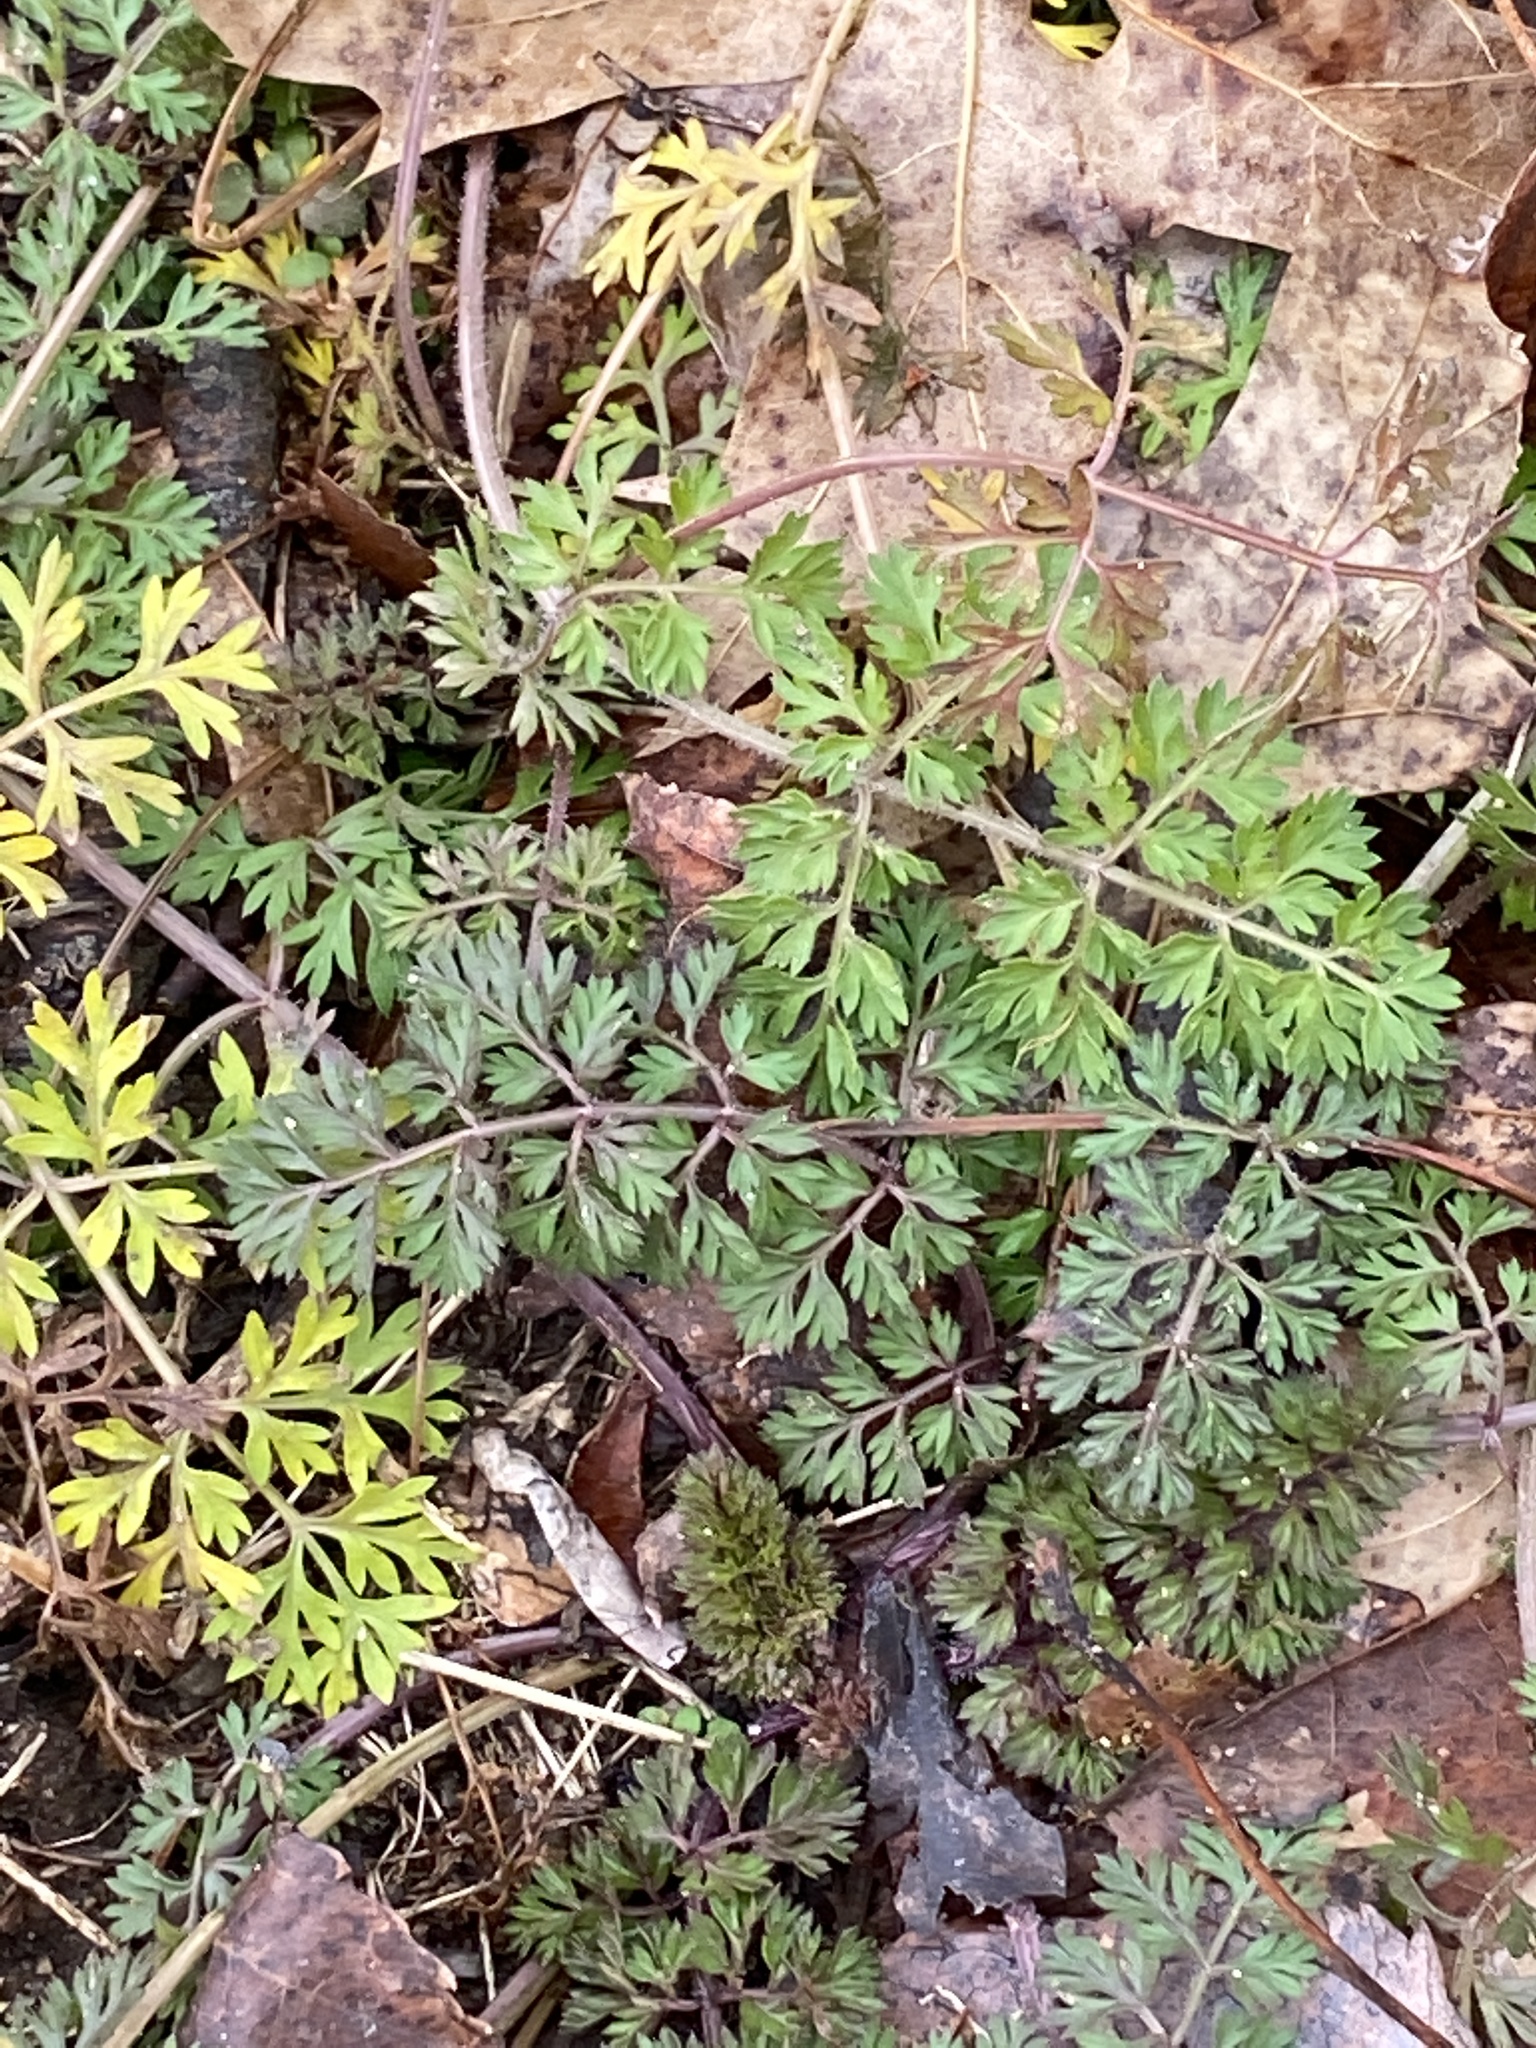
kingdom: Plantae
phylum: Tracheophyta
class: Magnoliopsida
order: Apiales
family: Apiaceae
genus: Daucus
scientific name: Daucus carota
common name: Wild carrot
